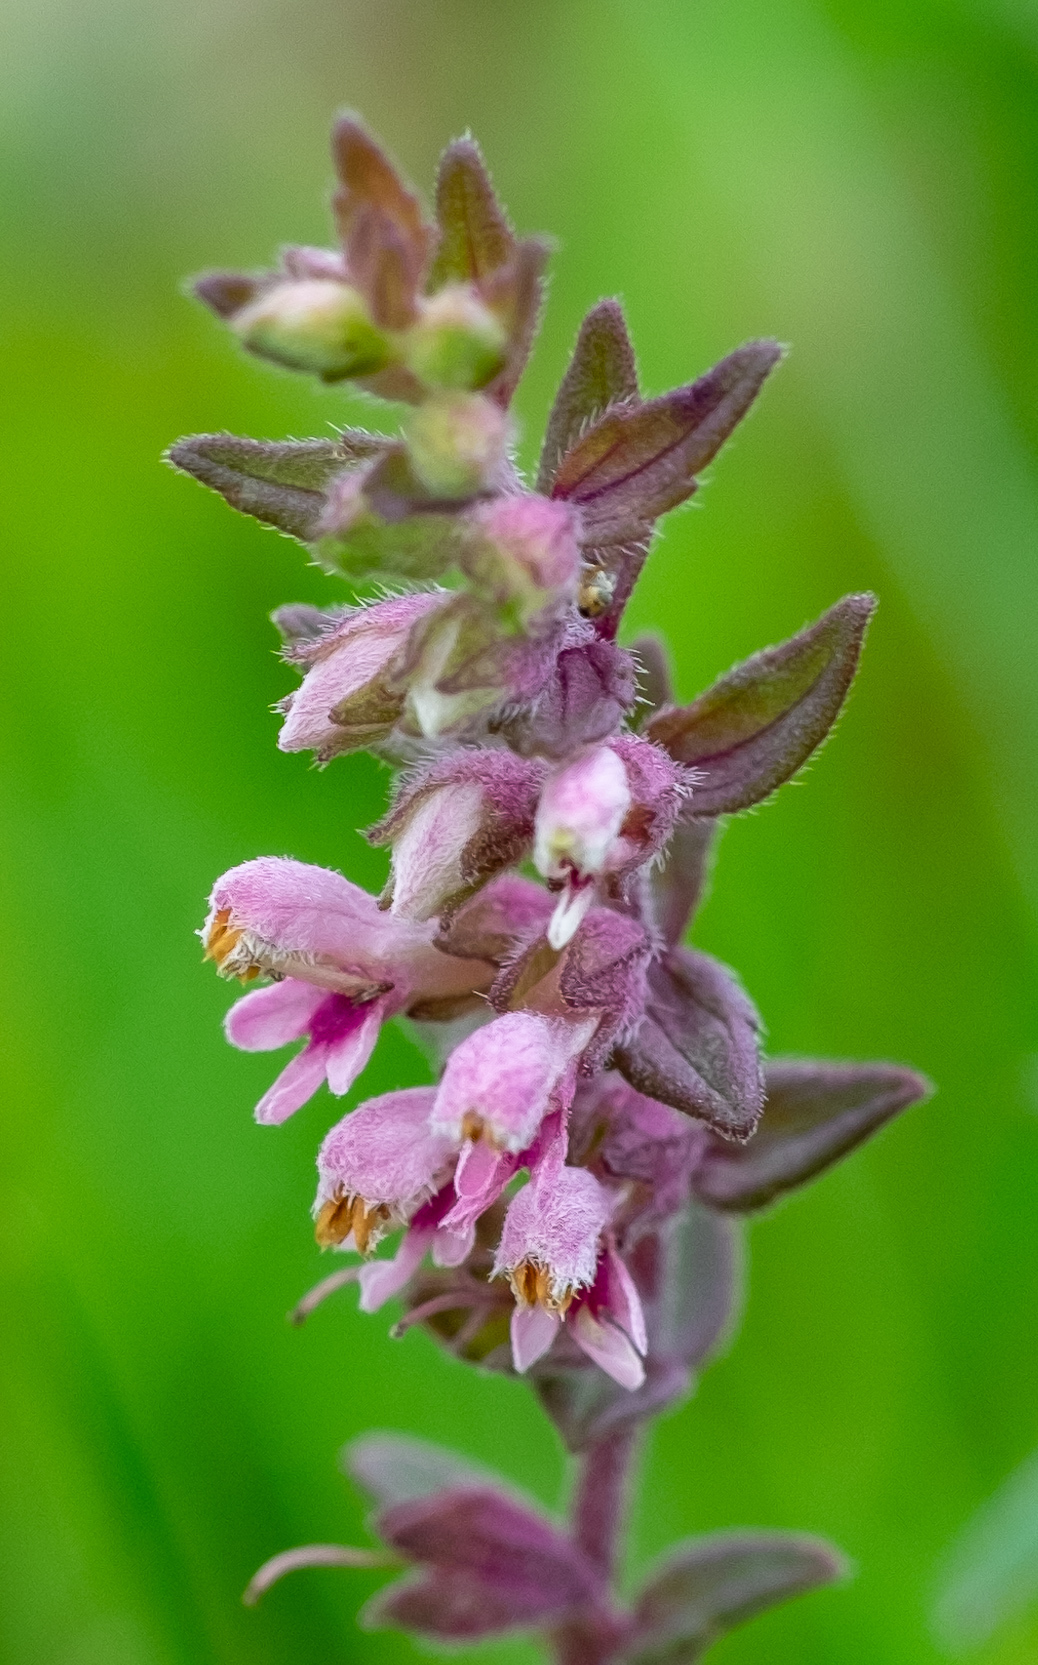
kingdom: Plantae
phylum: Tracheophyta
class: Magnoliopsida
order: Lamiales
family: Orobanchaceae
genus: Odontites
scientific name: Odontites vulgaris
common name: Broomrape
